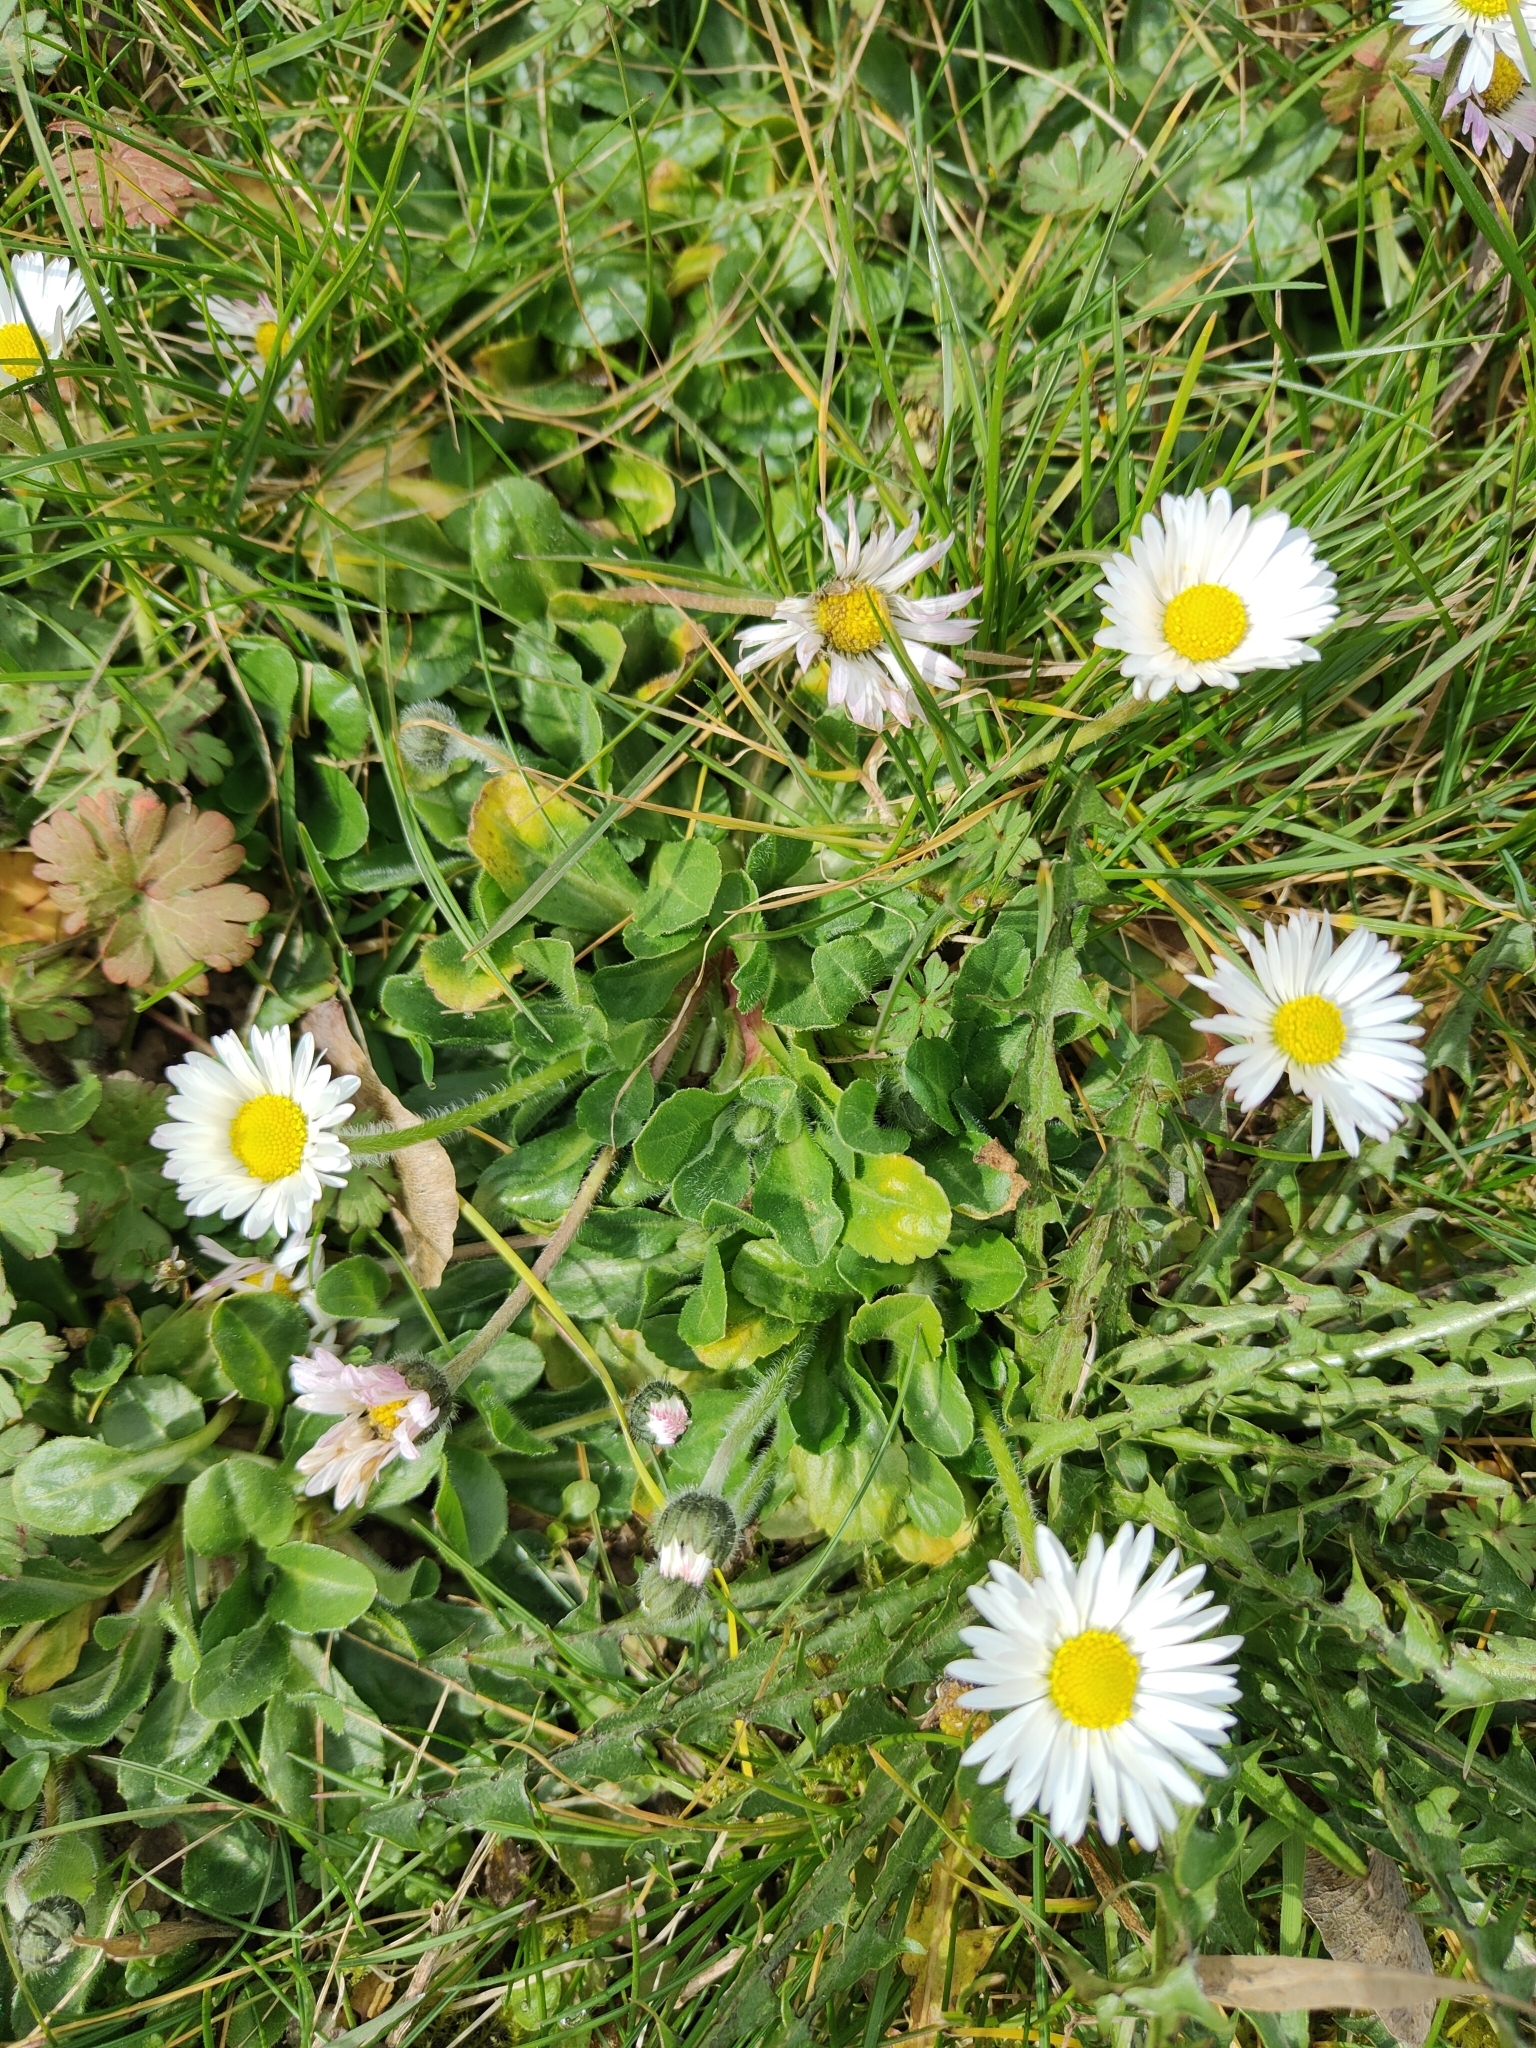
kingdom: Plantae
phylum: Tracheophyta
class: Magnoliopsida
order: Asterales
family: Asteraceae
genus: Bellis
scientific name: Bellis perennis
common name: Lawndaisy
